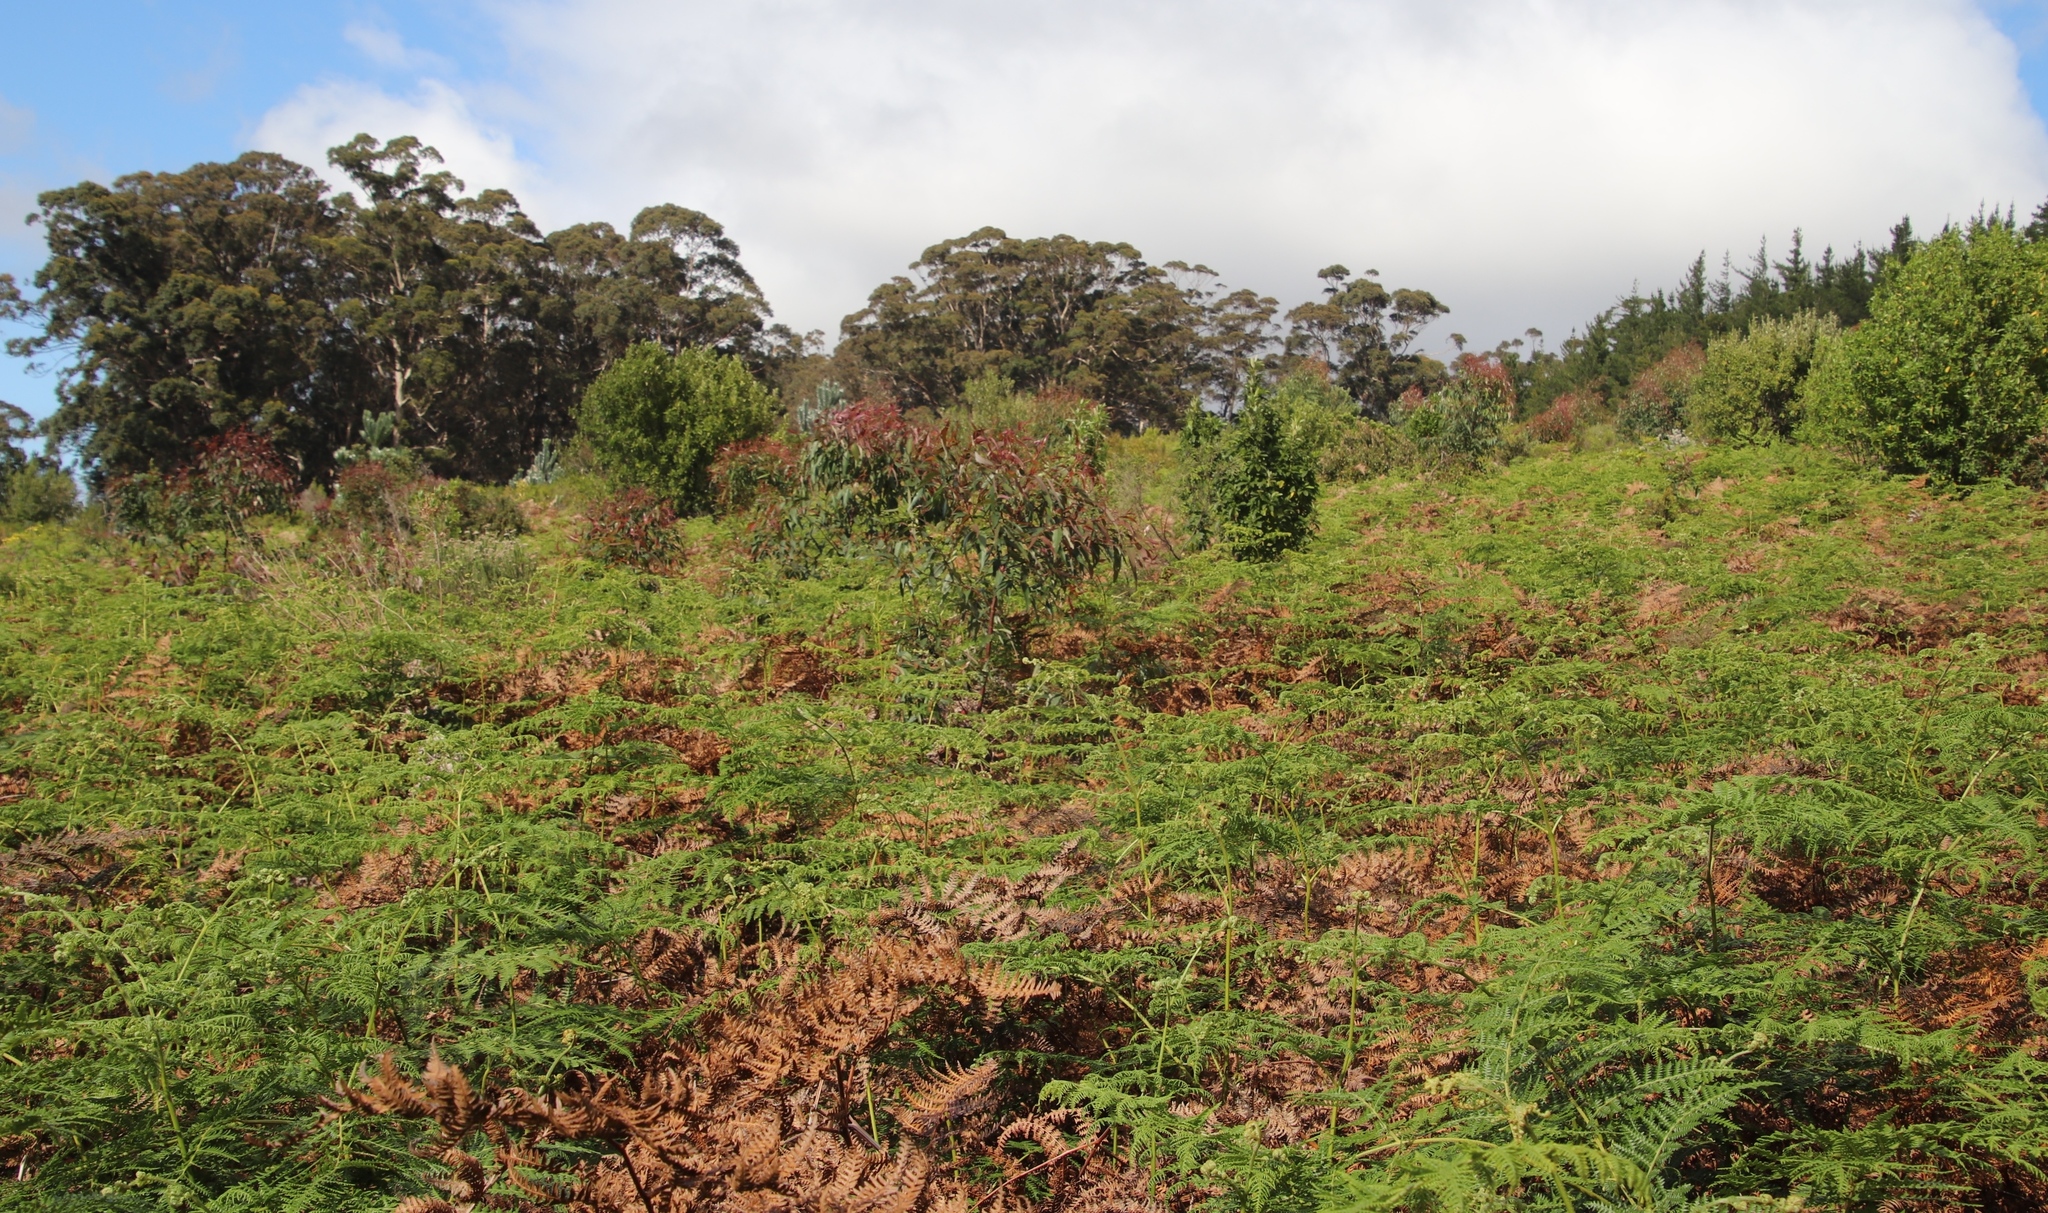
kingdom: Plantae
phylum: Tracheophyta
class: Polypodiopsida
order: Polypodiales
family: Dennstaedtiaceae
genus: Pteridium
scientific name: Pteridium aquilinum
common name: Bracken
